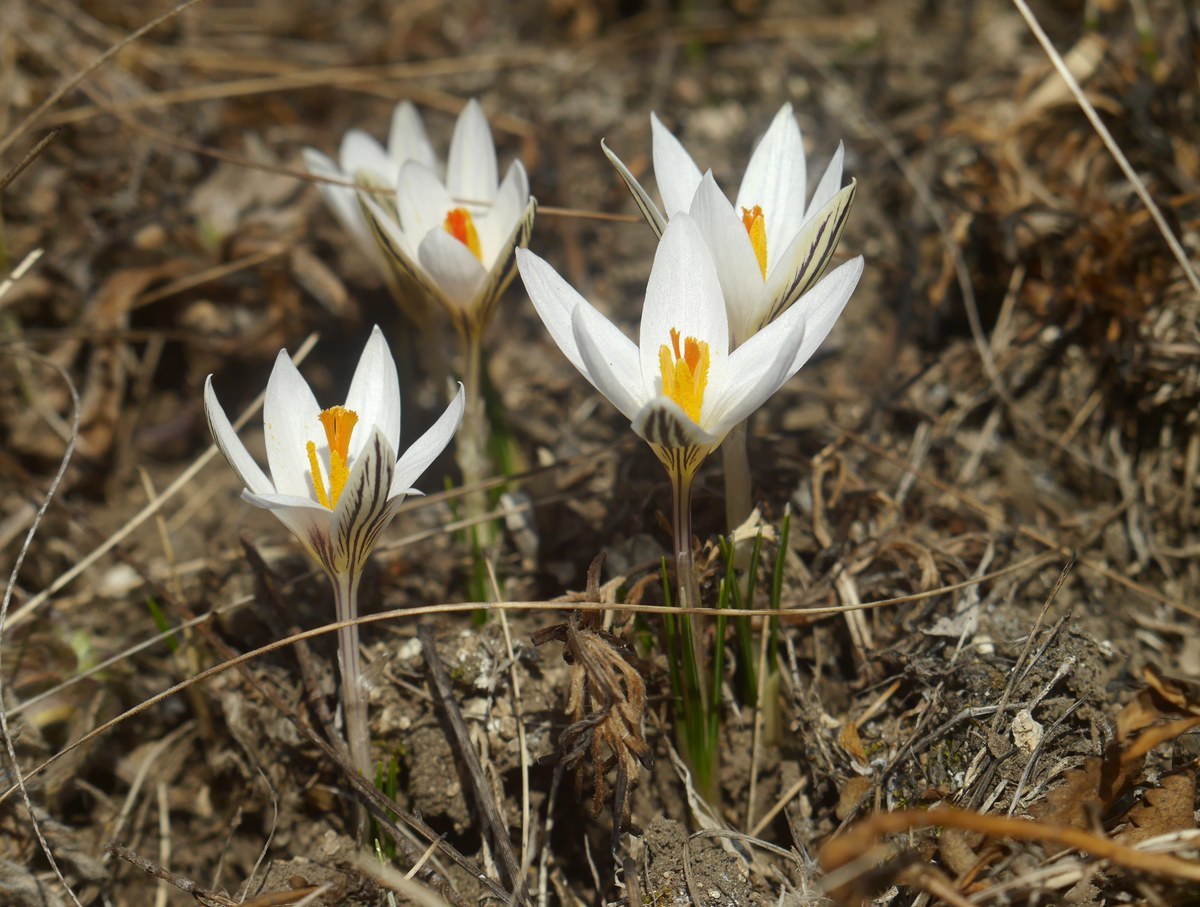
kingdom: Plantae
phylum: Tracheophyta
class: Liliopsida
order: Asparagales
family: Iridaceae
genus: Crocus
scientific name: Crocus reticulatus
